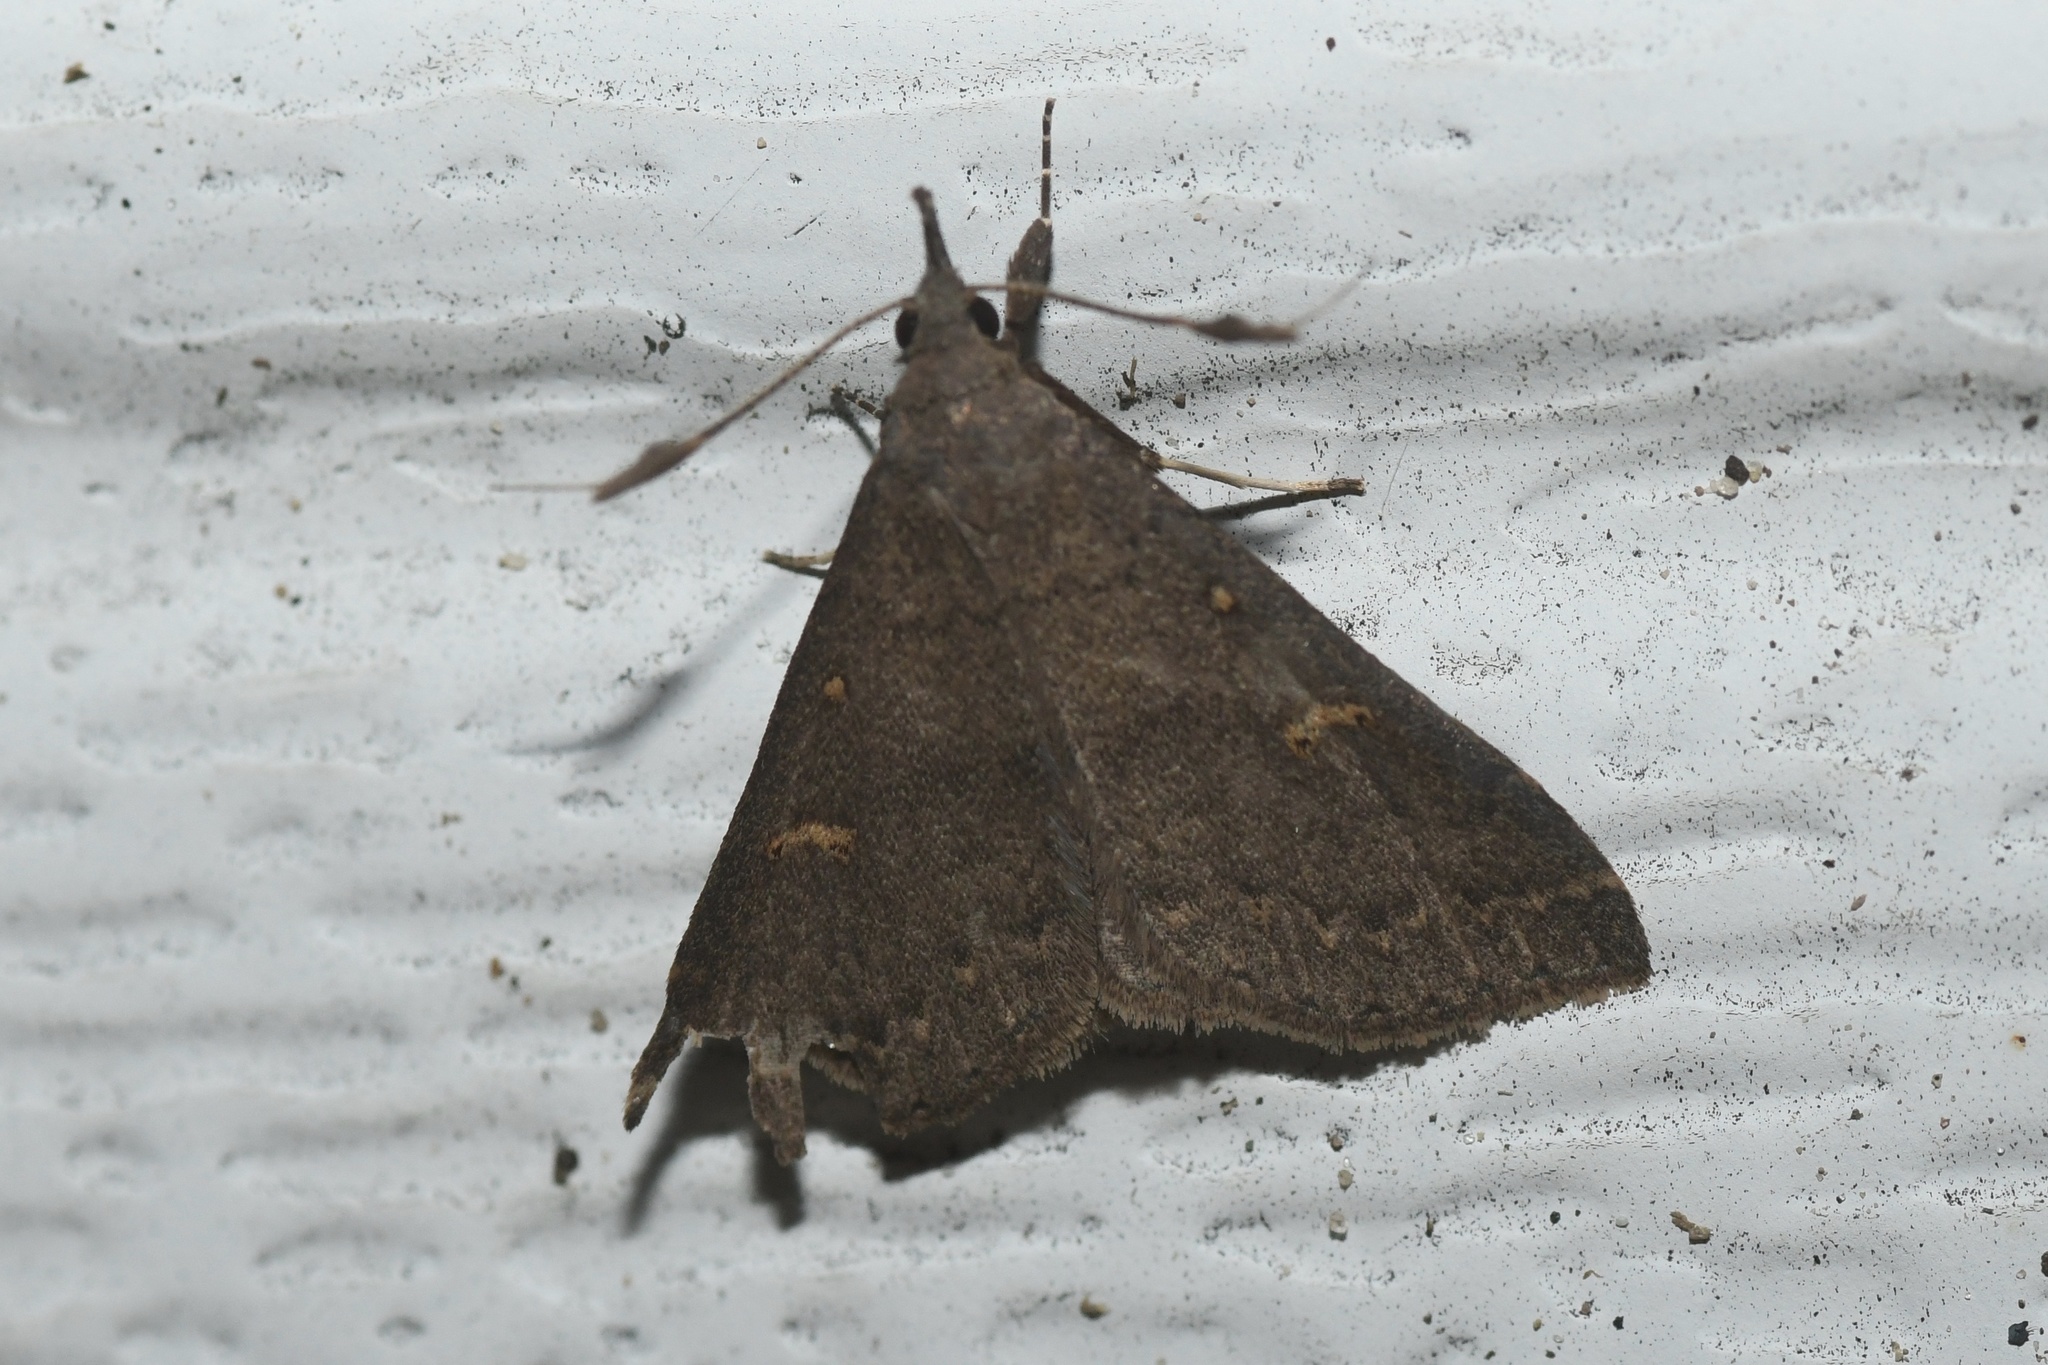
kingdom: Animalia
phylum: Arthropoda
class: Insecta
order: Lepidoptera
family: Erebidae
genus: Renia
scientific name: Renia adspergillus
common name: Speckled renia moth
